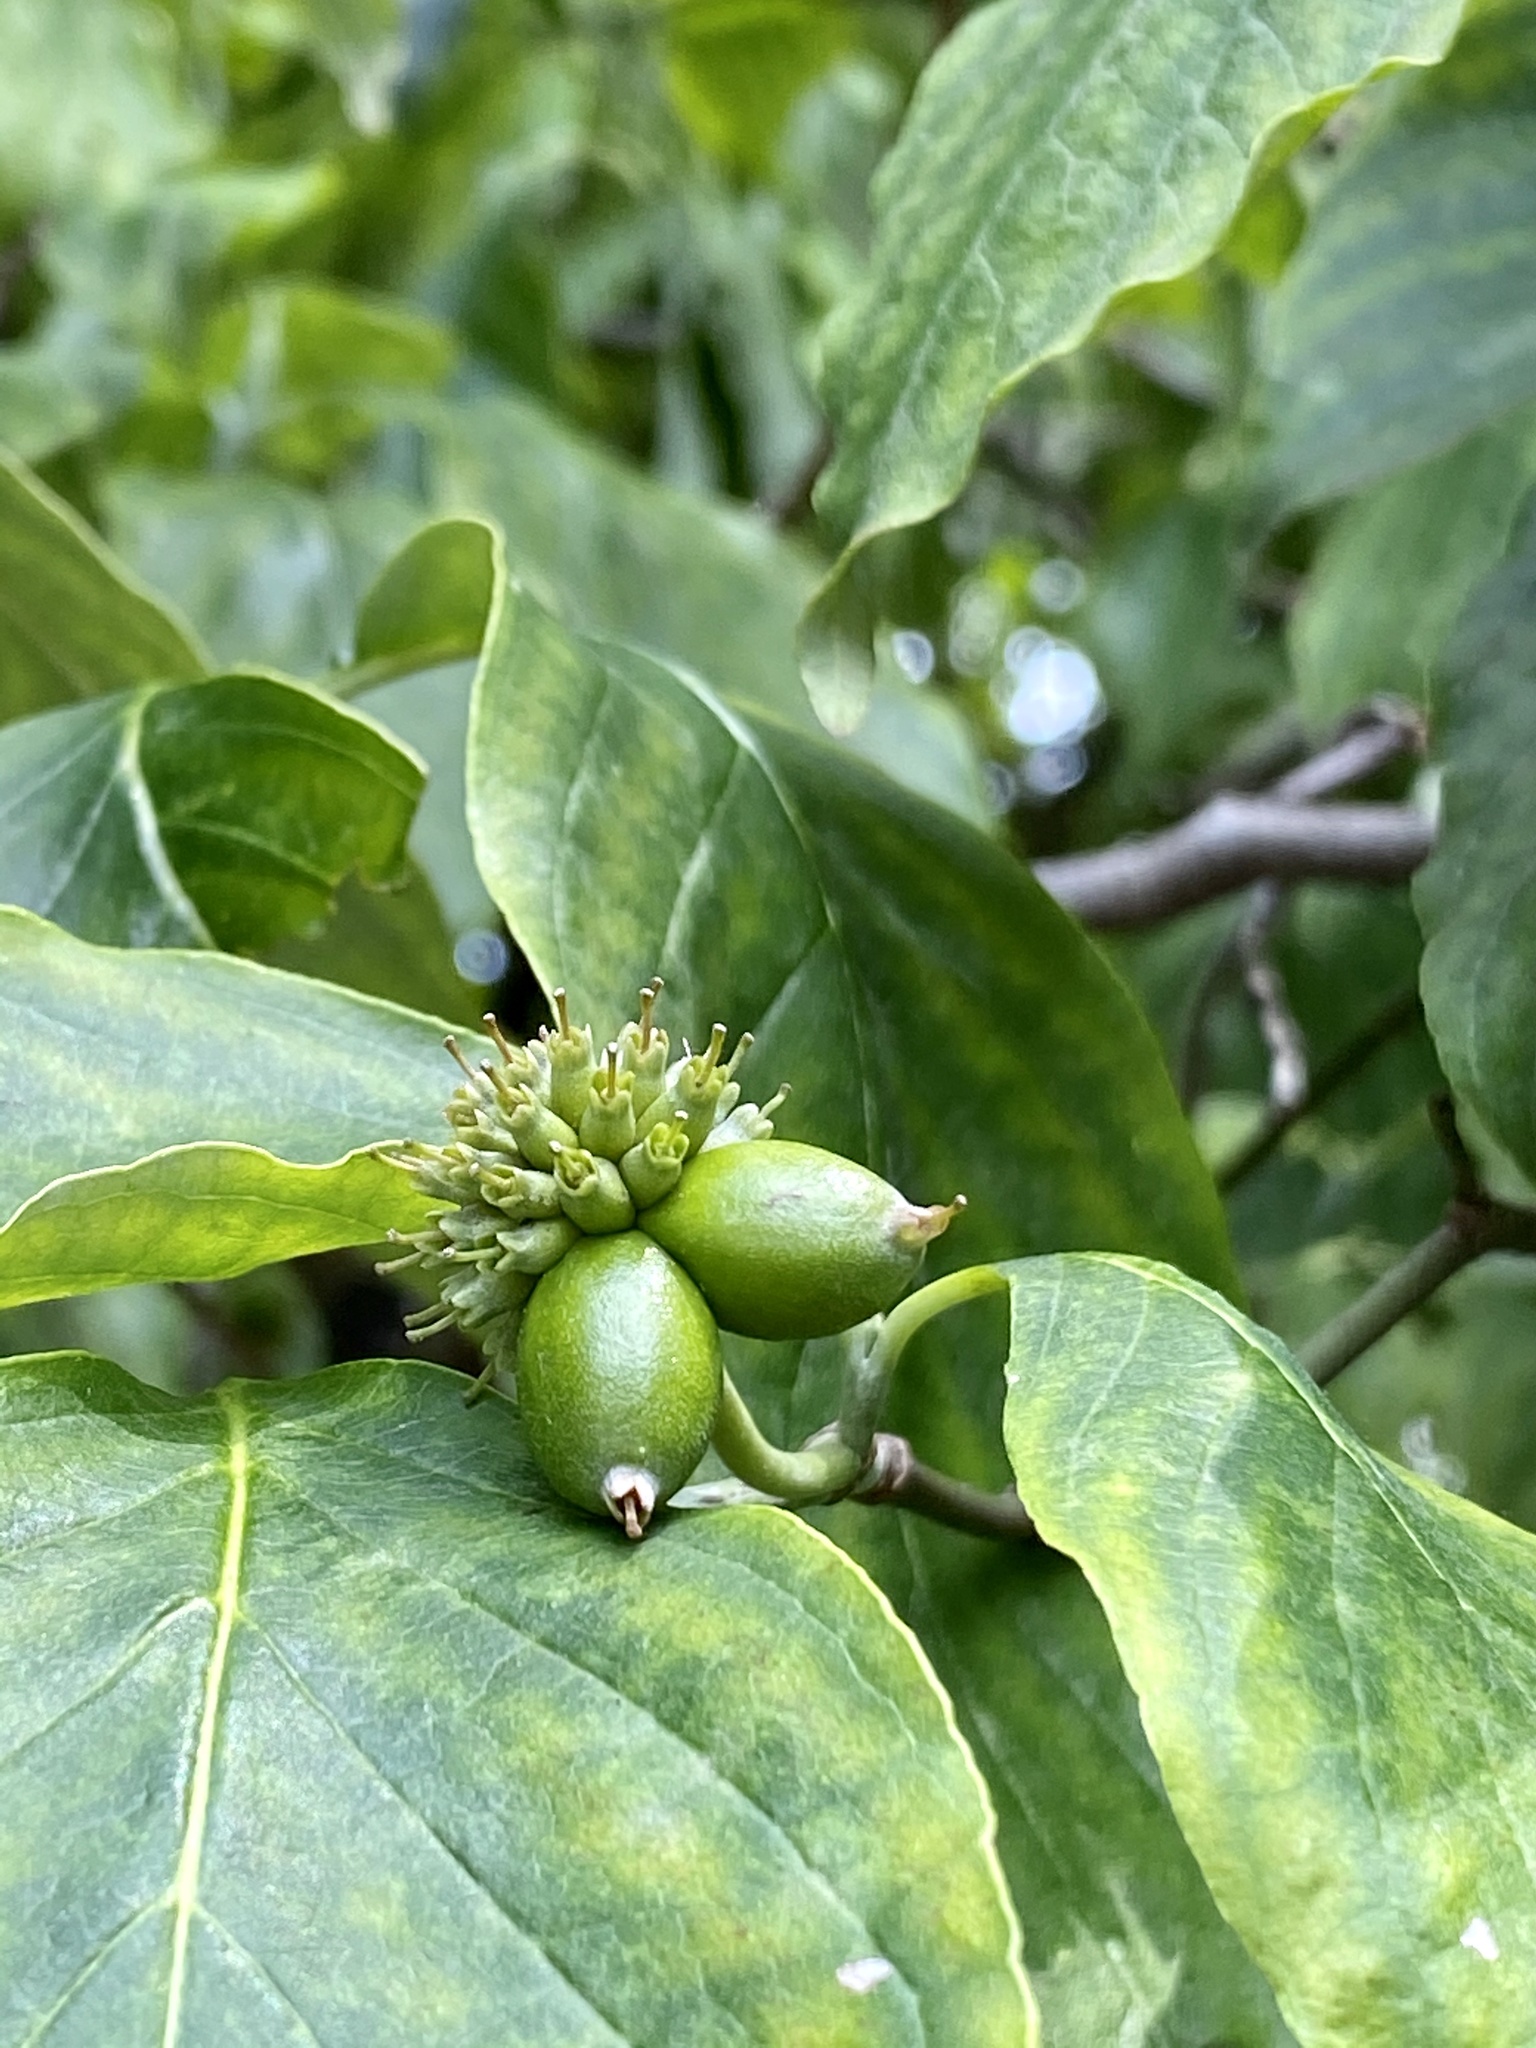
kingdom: Plantae
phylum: Tracheophyta
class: Magnoliopsida
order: Cornales
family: Cornaceae
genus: Cornus
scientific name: Cornus florida
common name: Flowering dogwood
